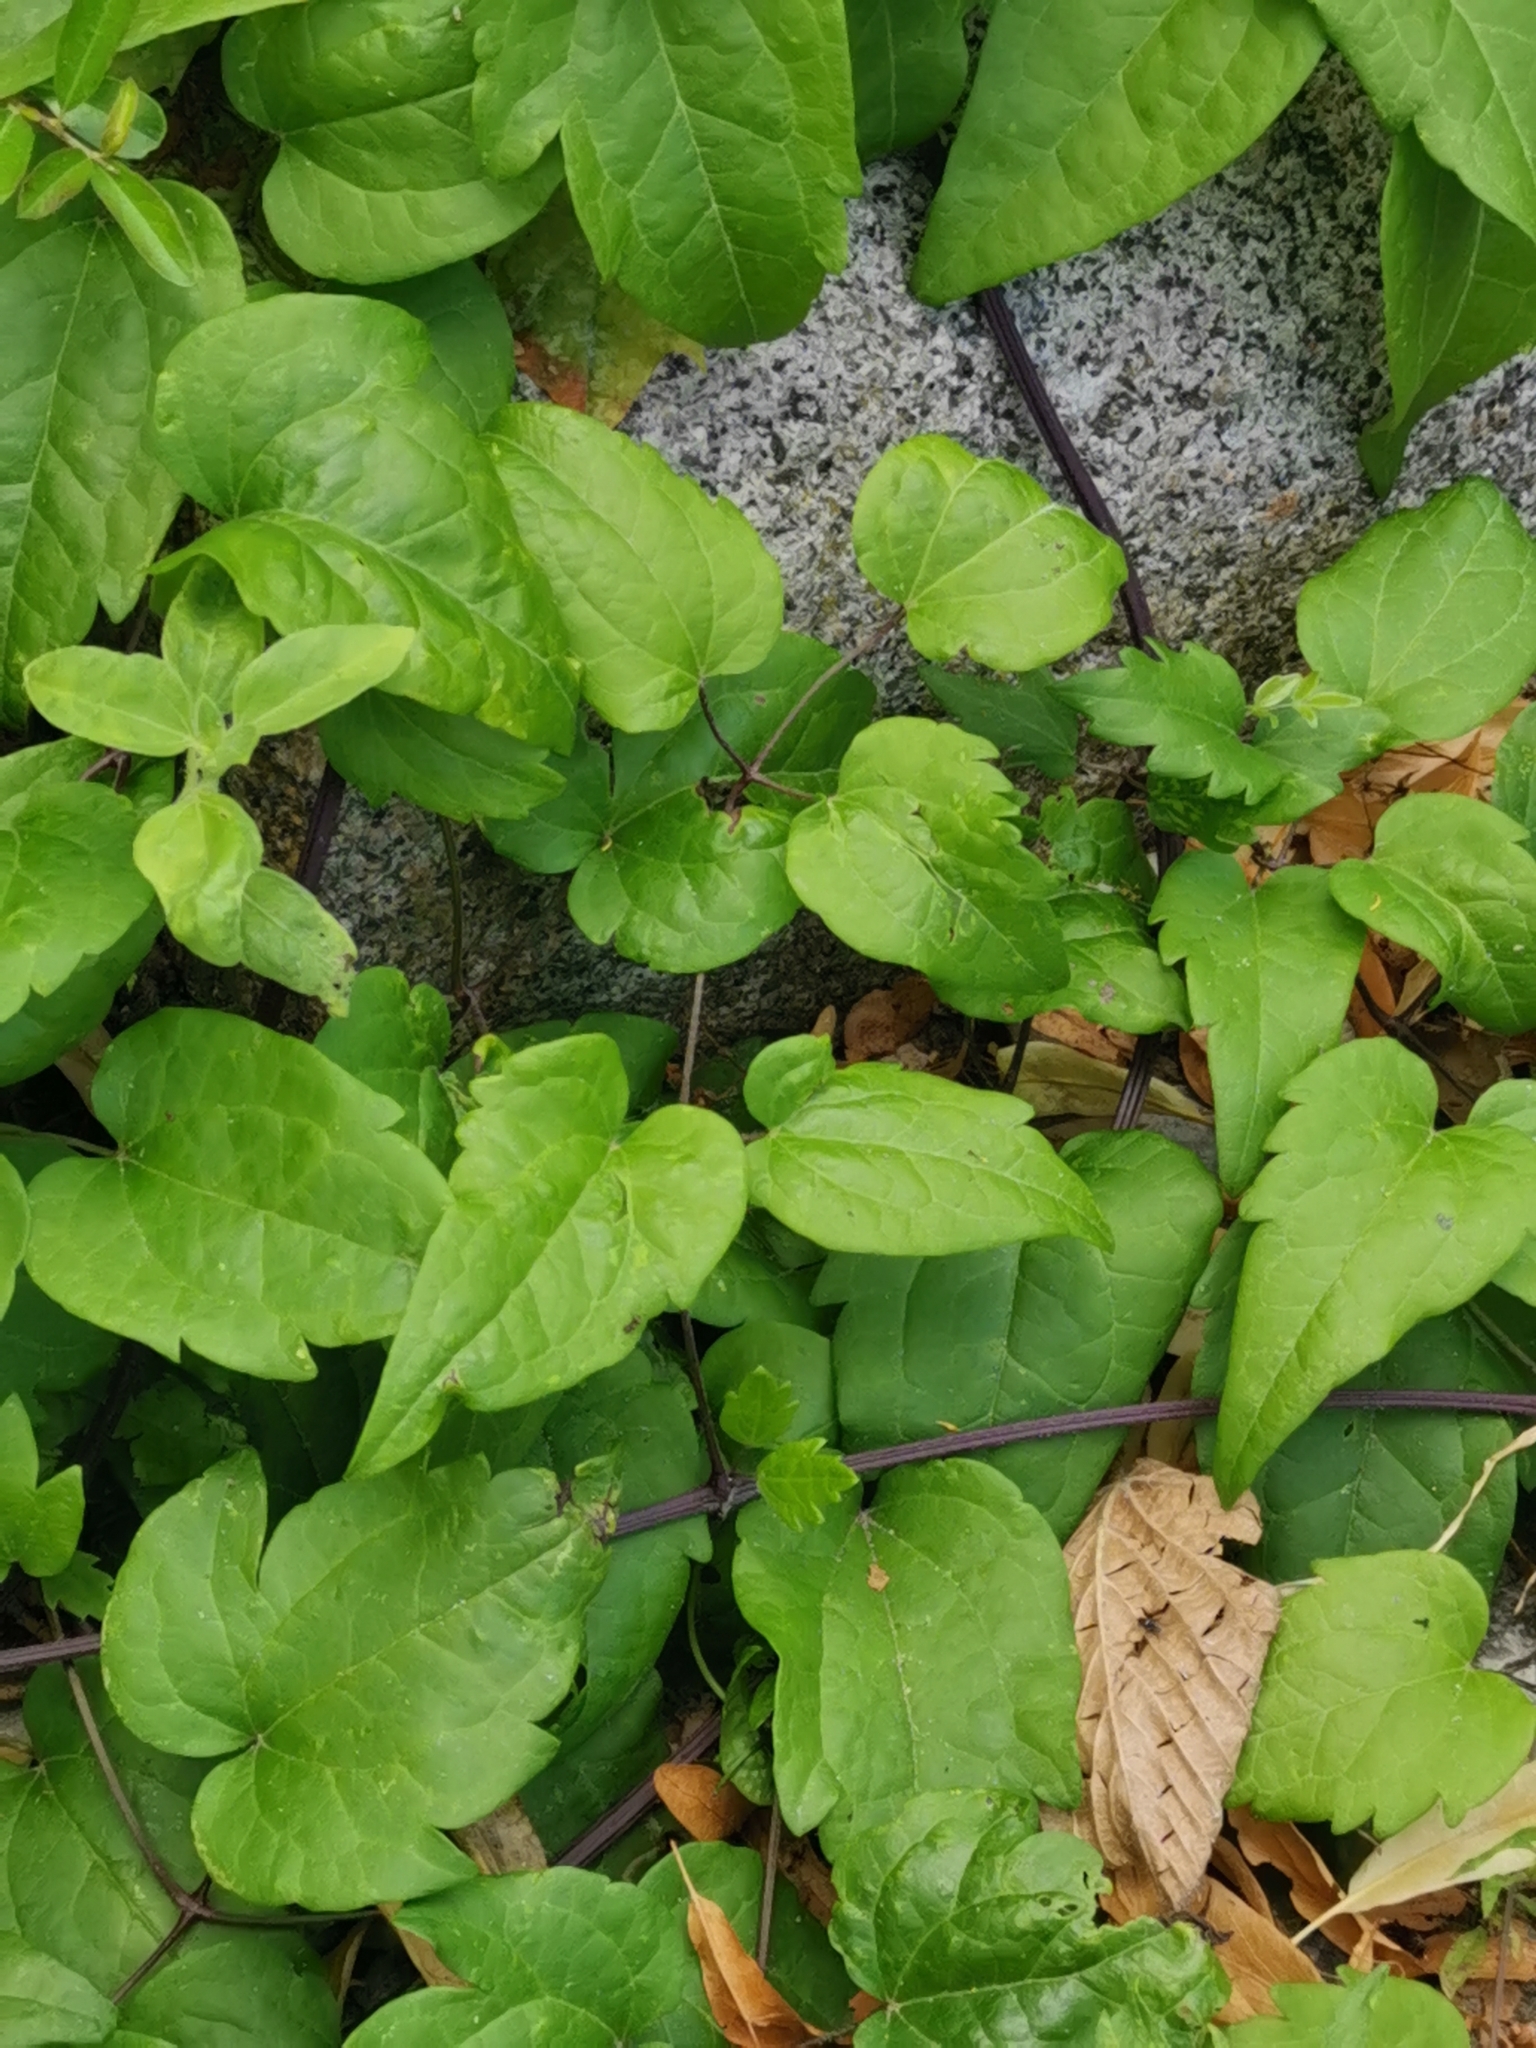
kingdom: Plantae
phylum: Tracheophyta
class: Magnoliopsida
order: Ranunculales
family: Ranunculaceae
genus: Clematis
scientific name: Clematis vitalba
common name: Evergreen clematis
